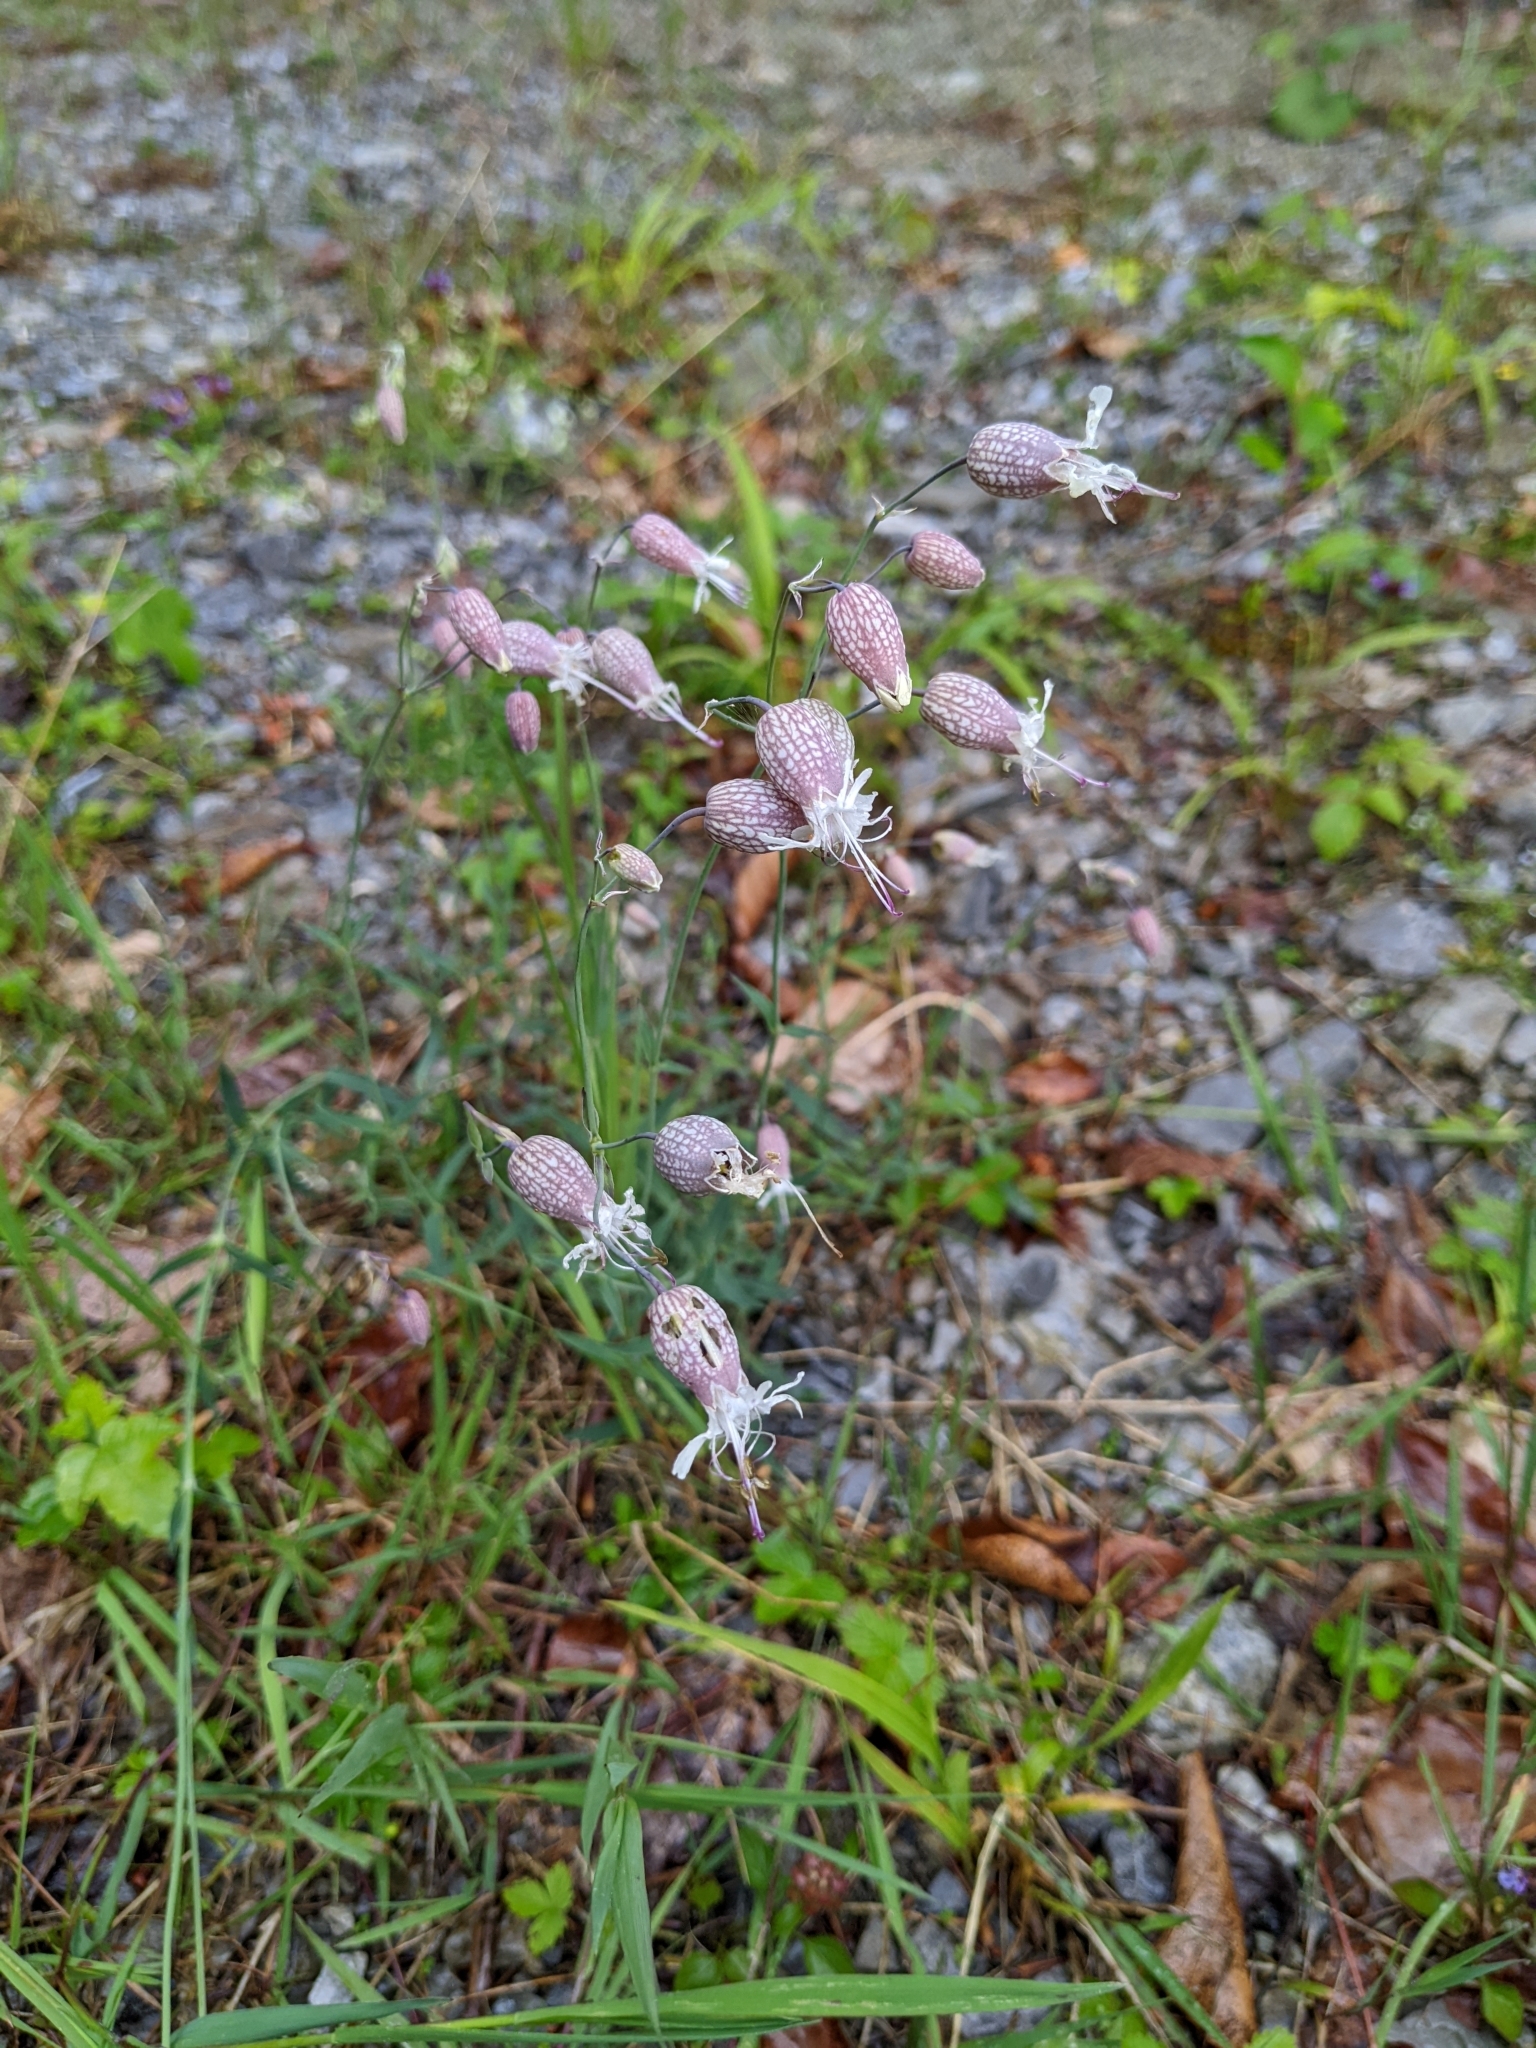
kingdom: Plantae
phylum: Tracheophyta
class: Magnoliopsida
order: Caryophyllales
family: Caryophyllaceae
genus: Silene
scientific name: Silene vulgaris
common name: Bladder campion
